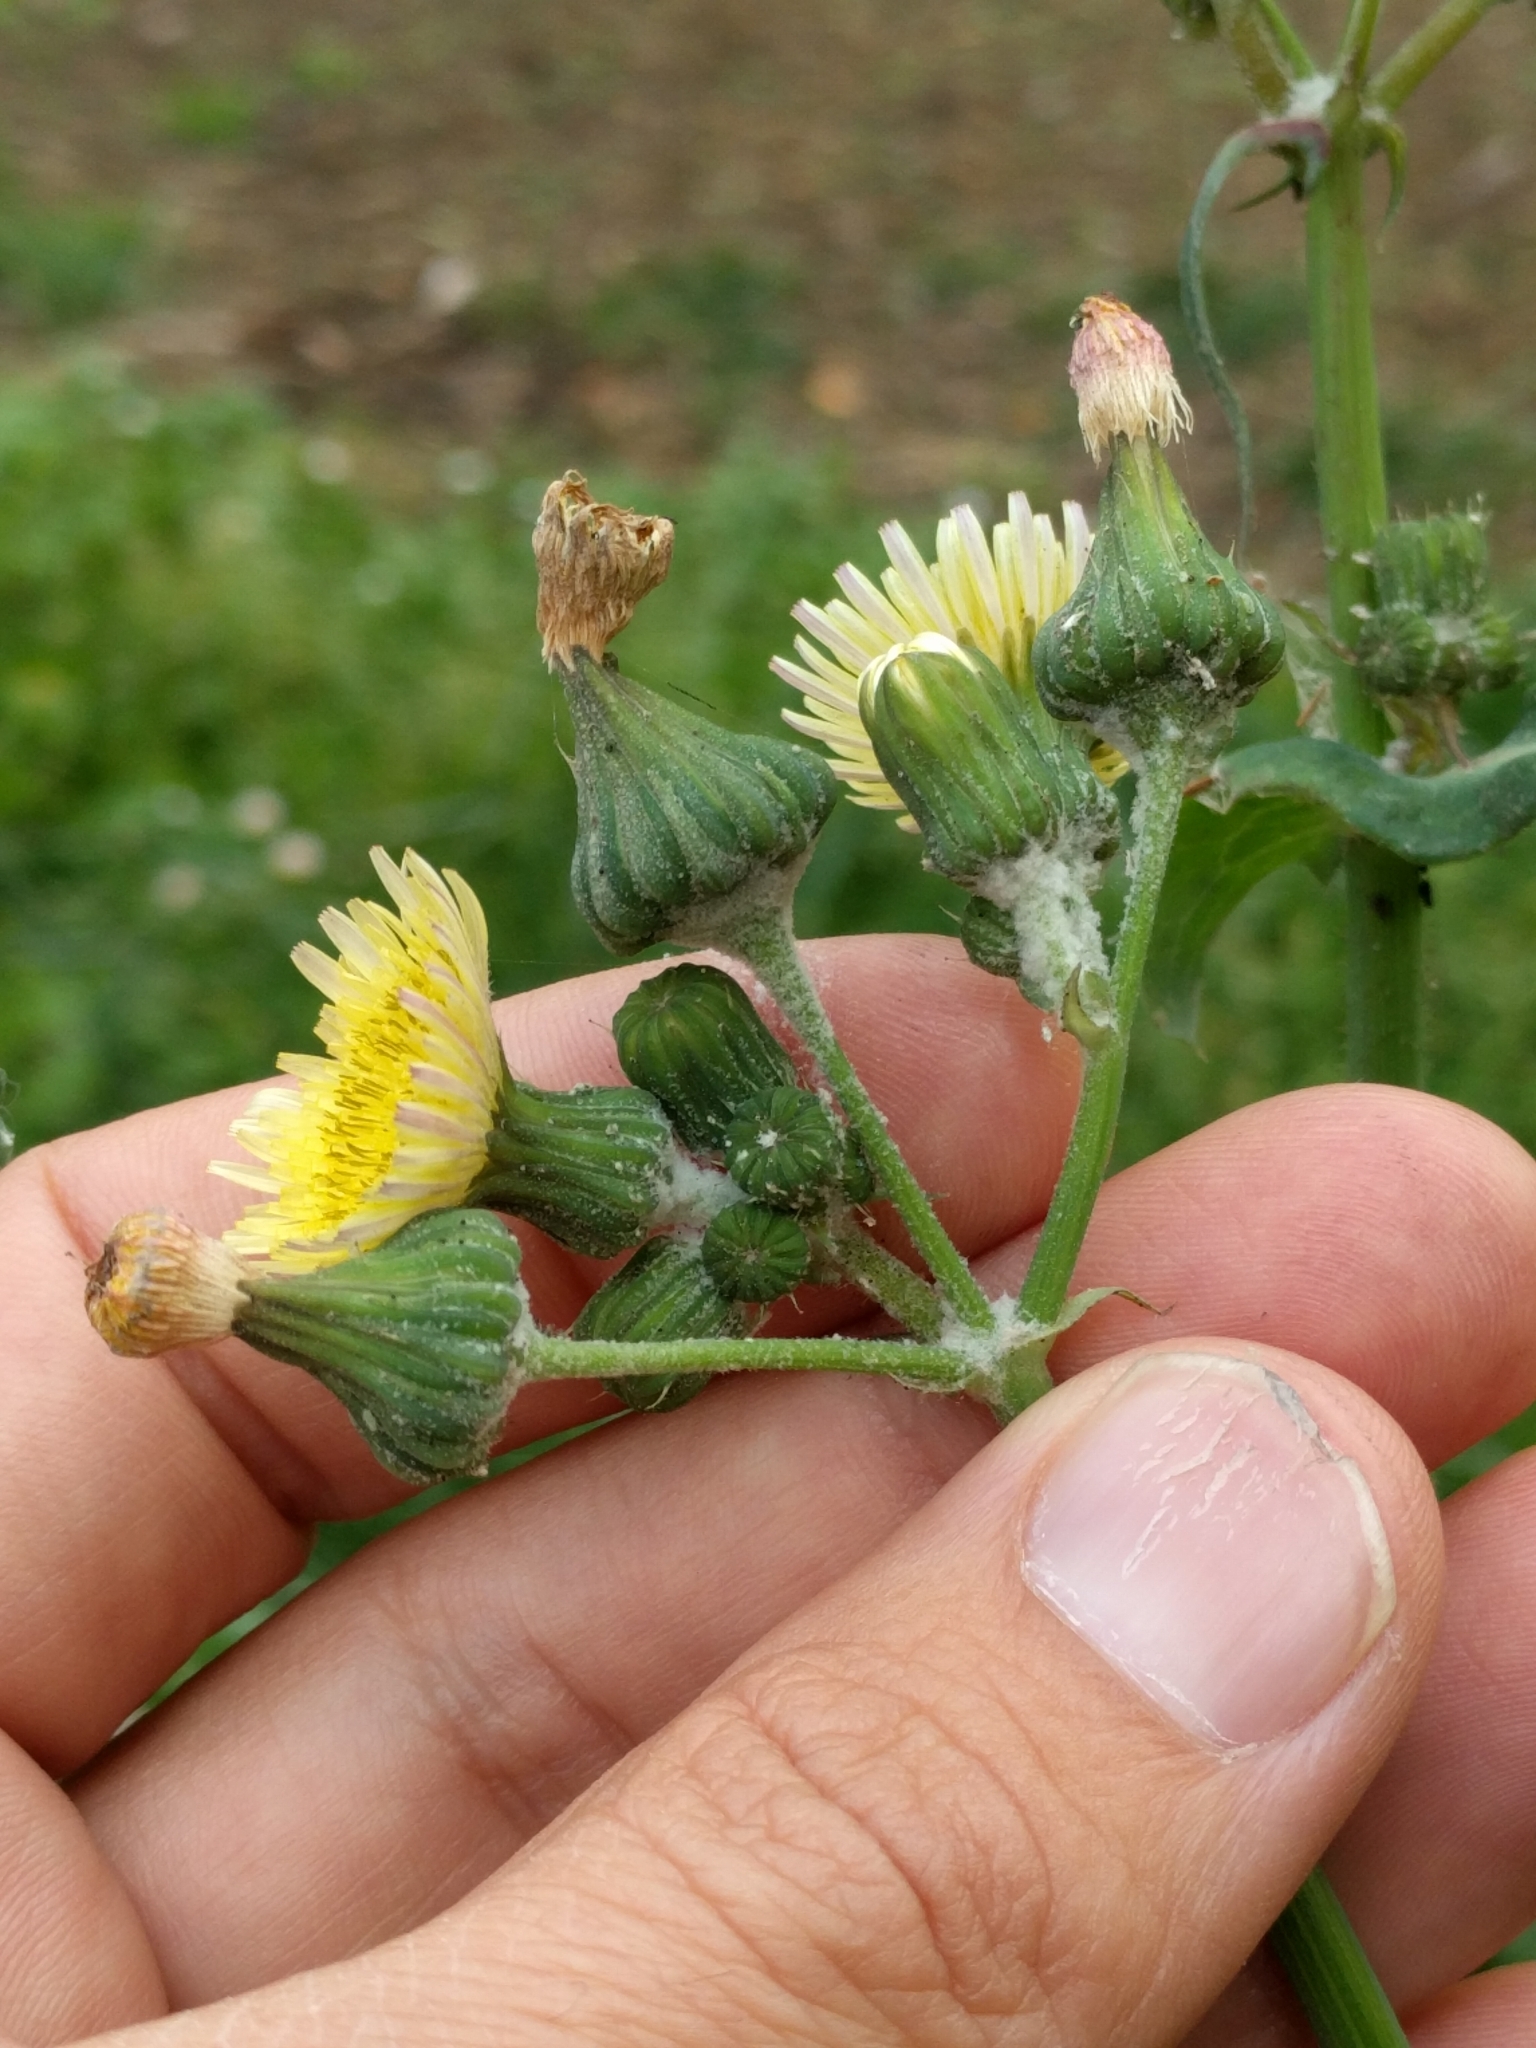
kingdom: Plantae
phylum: Tracheophyta
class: Magnoliopsida
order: Asterales
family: Asteraceae
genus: Sonchus
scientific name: Sonchus oleraceus
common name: Common sowthistle
